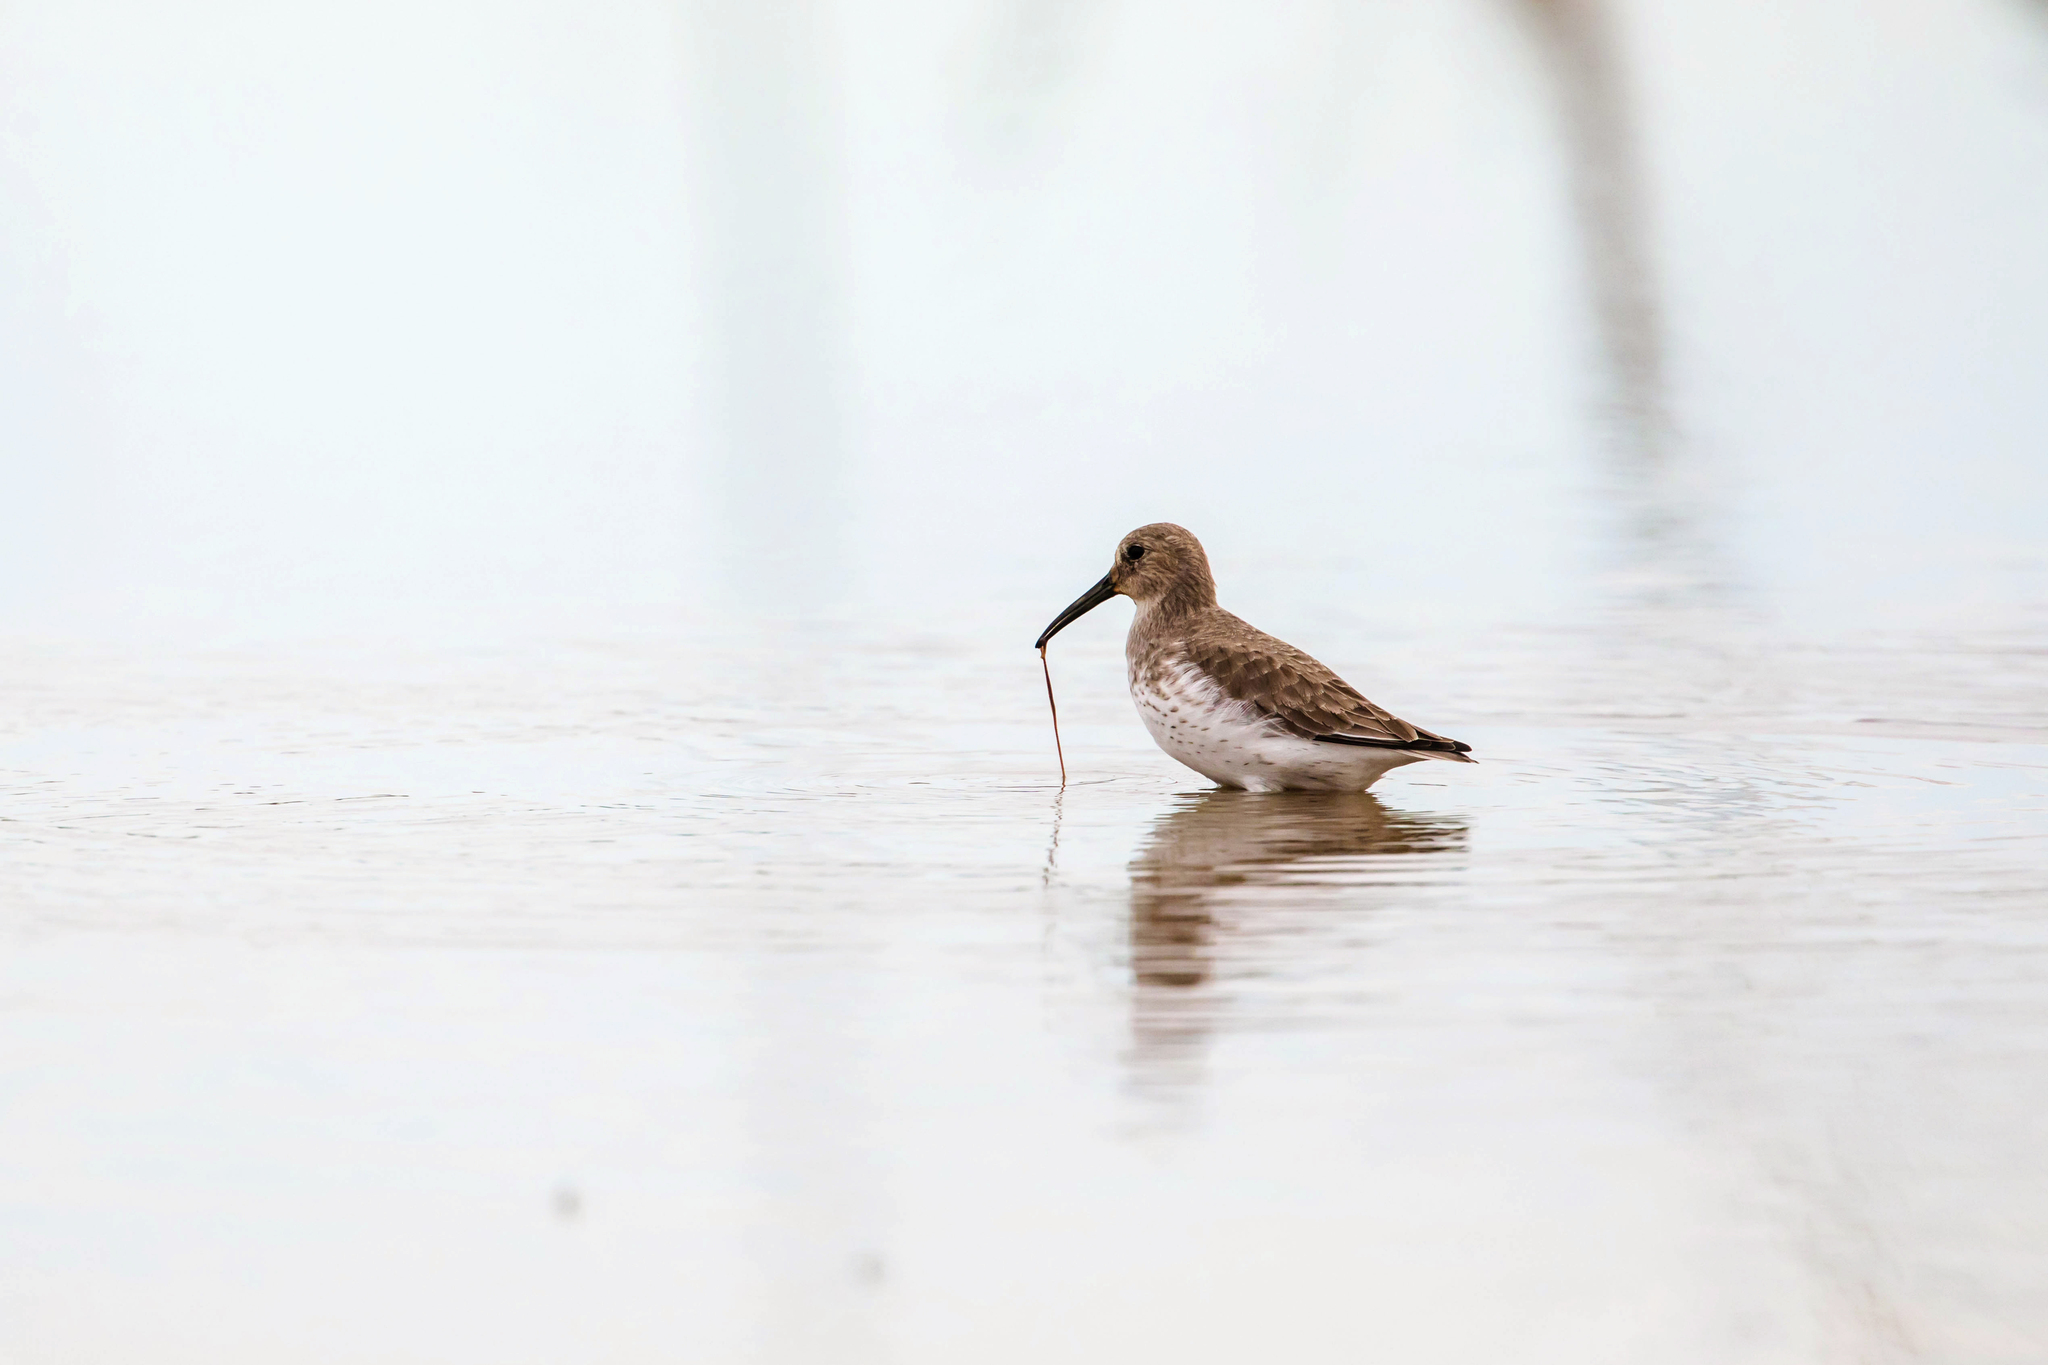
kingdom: Animalia
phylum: Chordata
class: Aves
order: Charadriiformes
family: Scolopacidae
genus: Calidris
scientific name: Calidris alpina
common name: Dunlin
